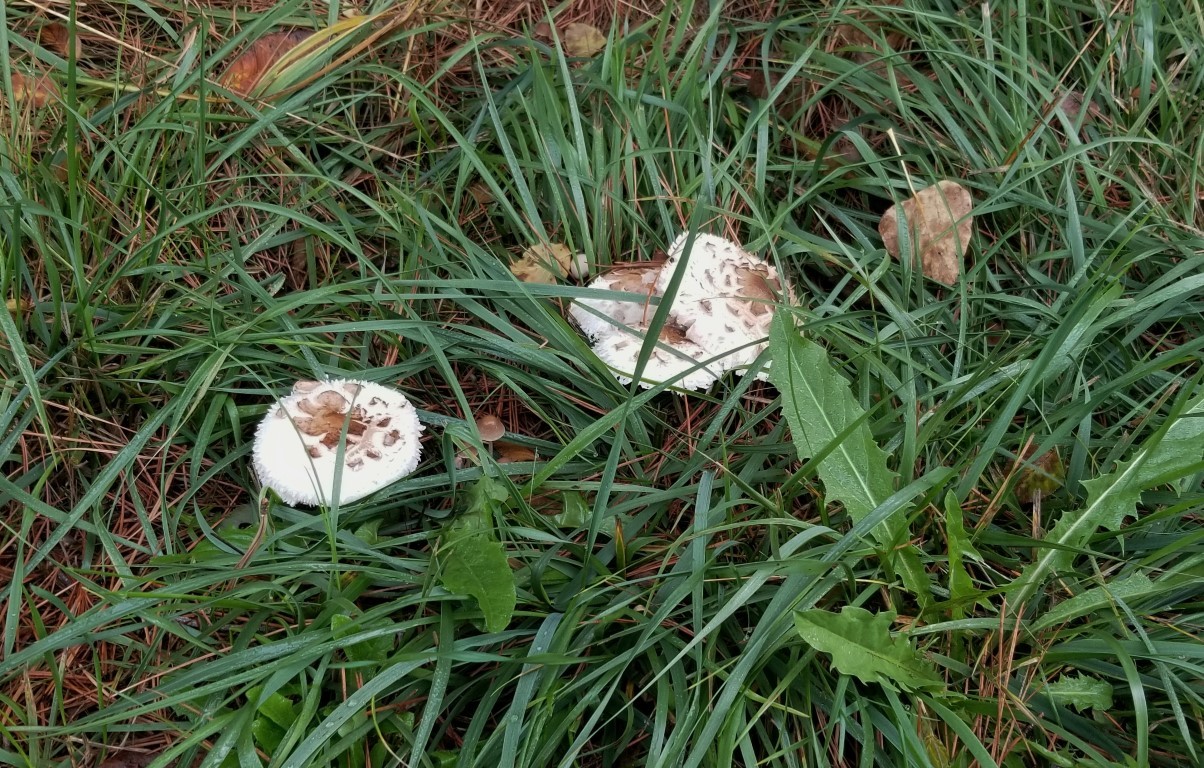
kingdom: Fungi
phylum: Basidiomycota
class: Agaricomycetes
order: Agaricales
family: Agaricaceae
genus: Chlorophyllum
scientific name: Chlorophyllum rhacodes
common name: Shaggy parasol
